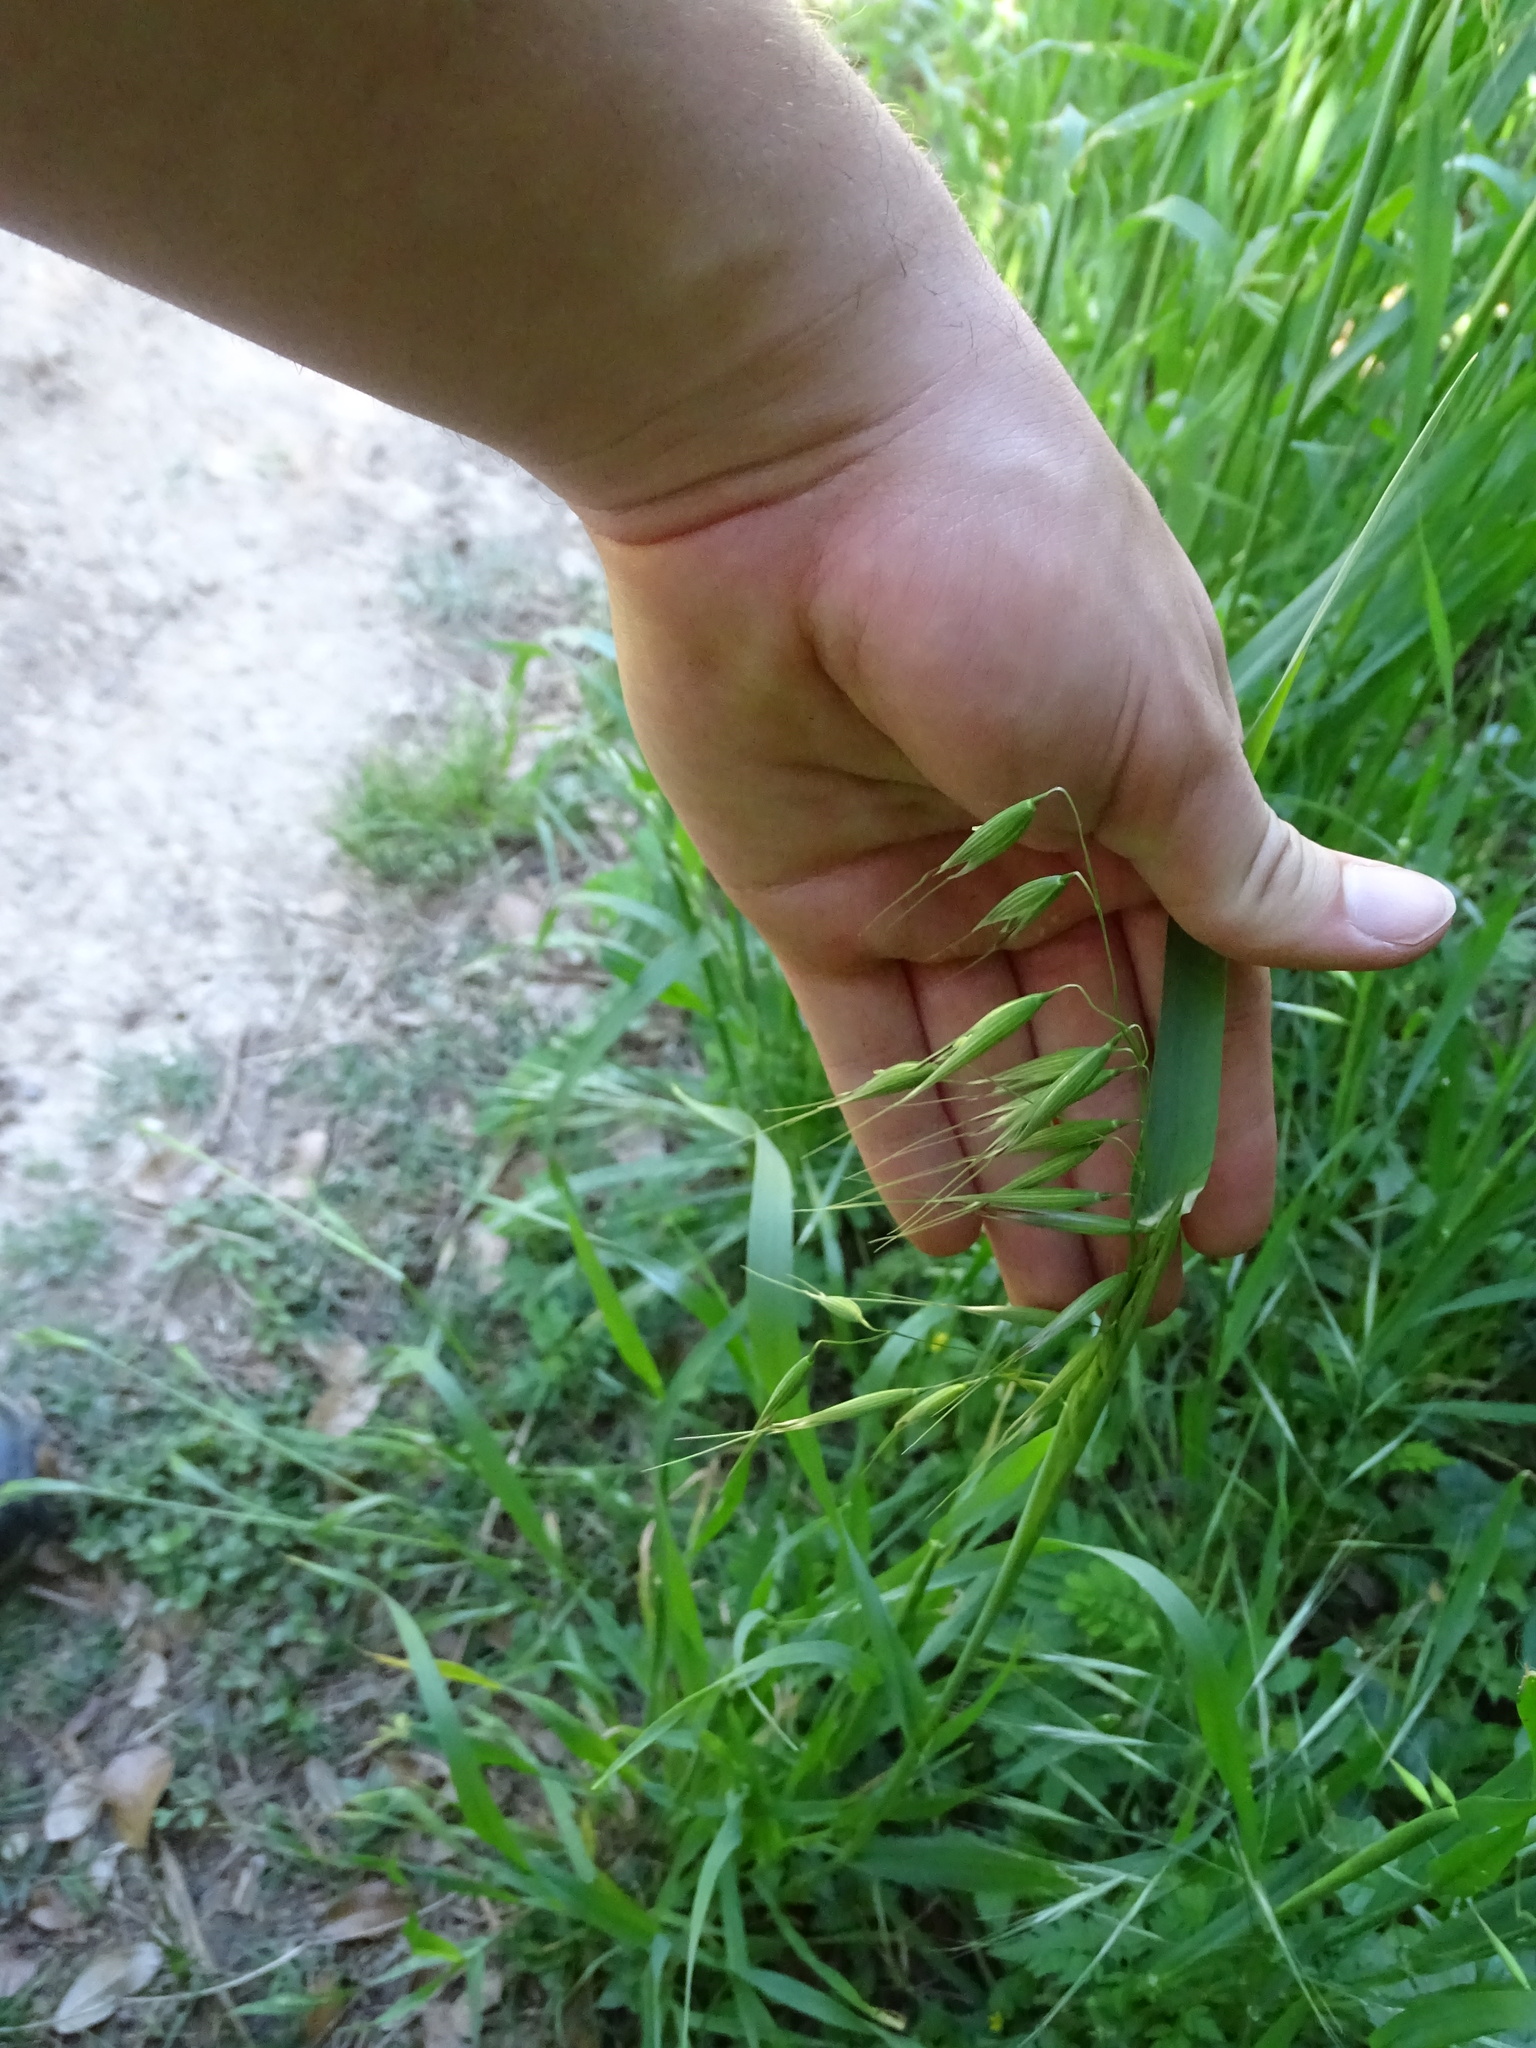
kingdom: Plantae
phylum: Tracheophyta
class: Liliopsida
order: Poales
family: Poaceae
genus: Avena
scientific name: Avena fatua
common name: Wild oat
